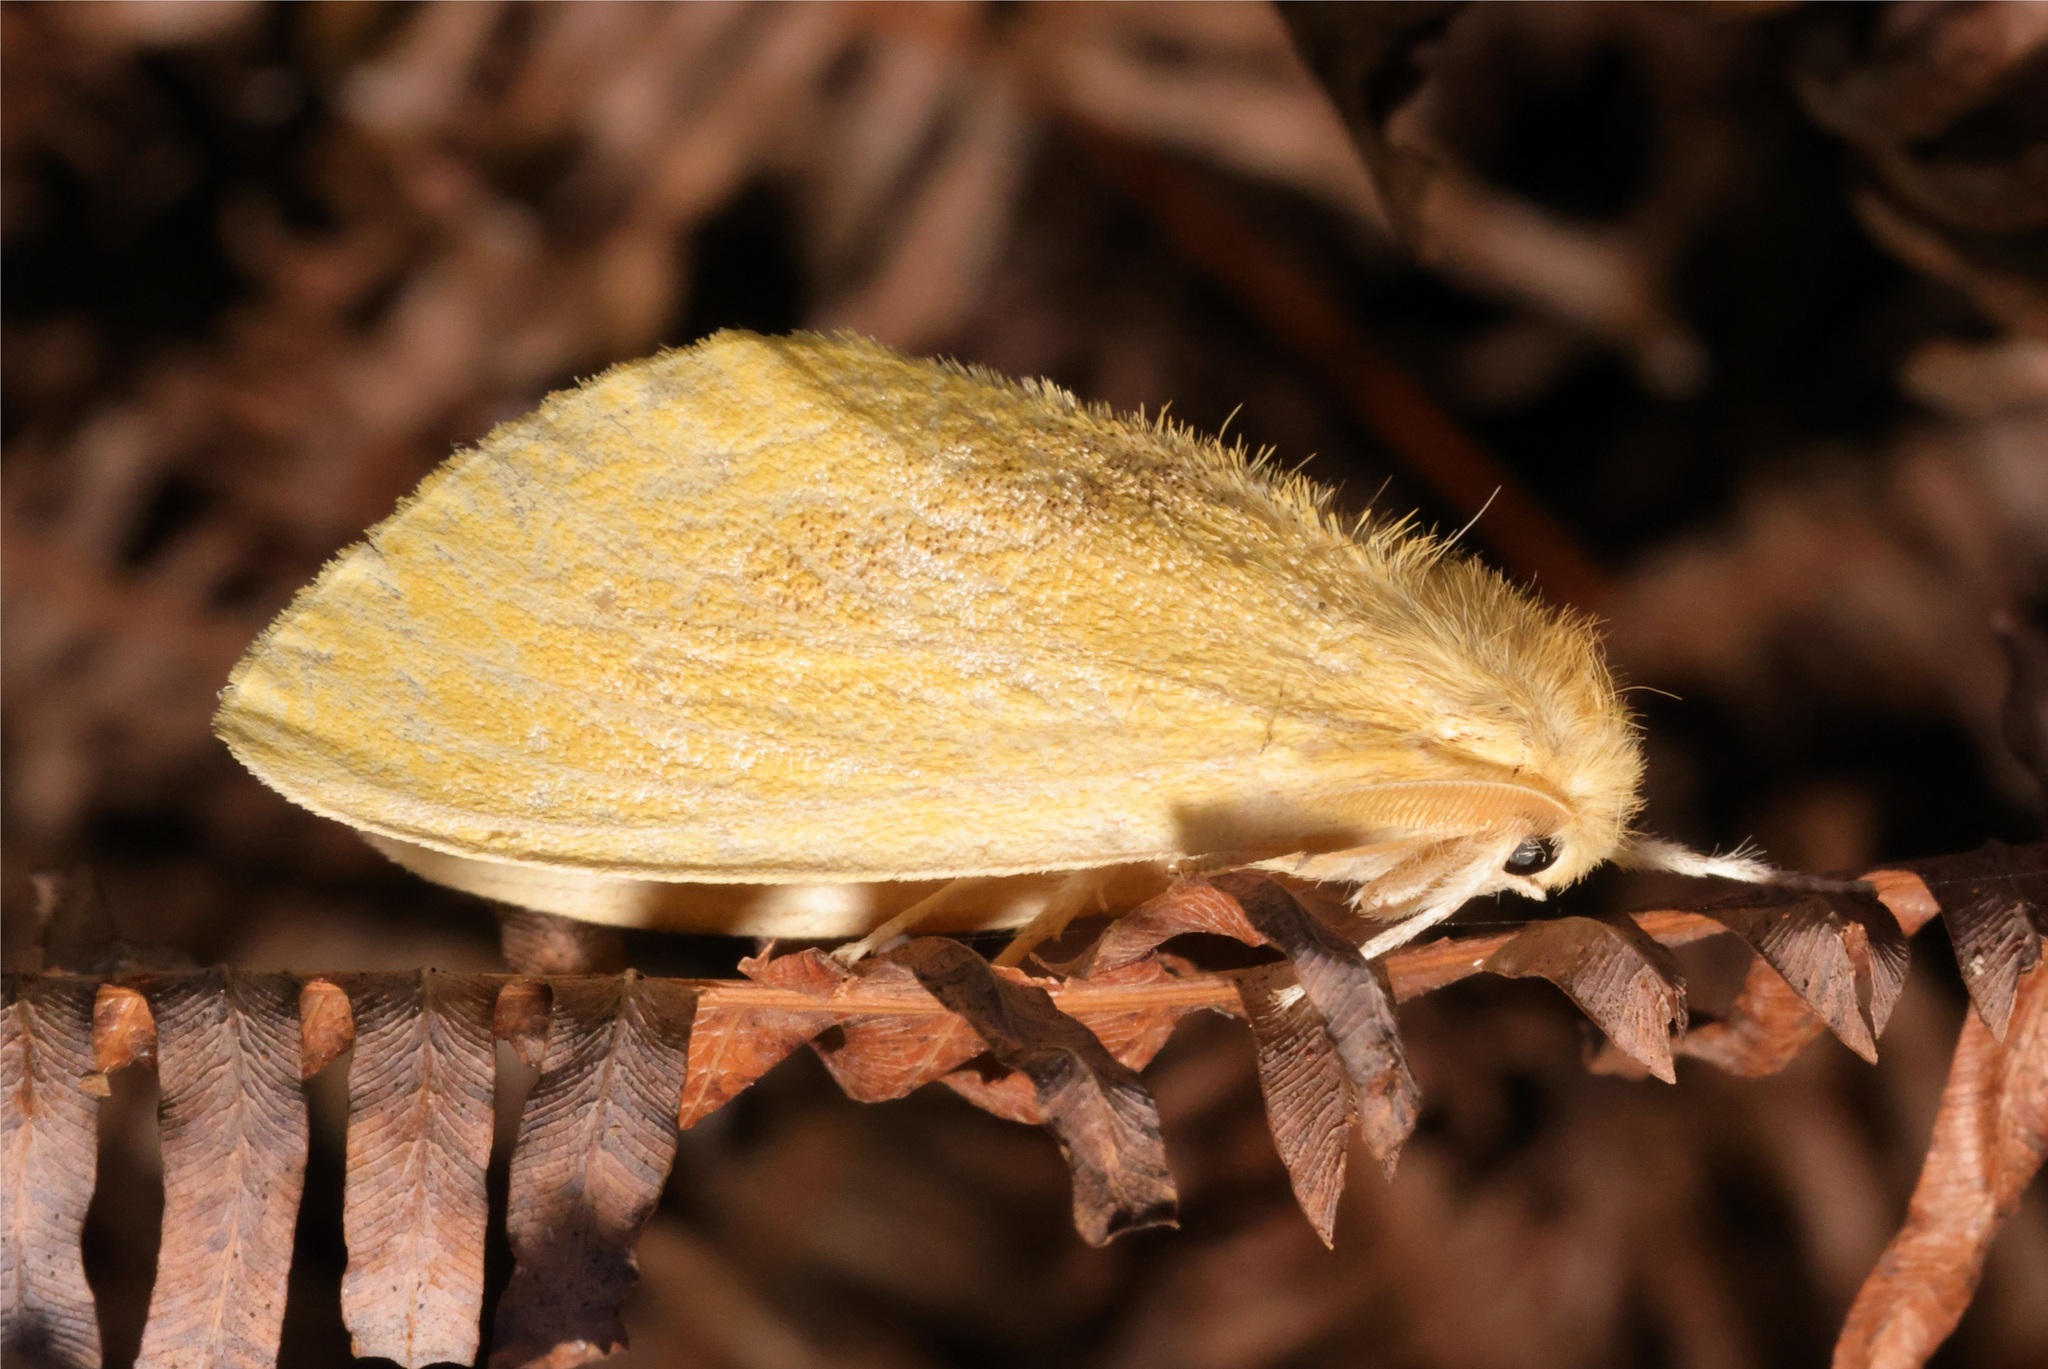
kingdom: Animalia
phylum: Arthropoda
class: Insecta
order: Lepidoptera
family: Erebidae
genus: Perina
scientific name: Perina nuda
